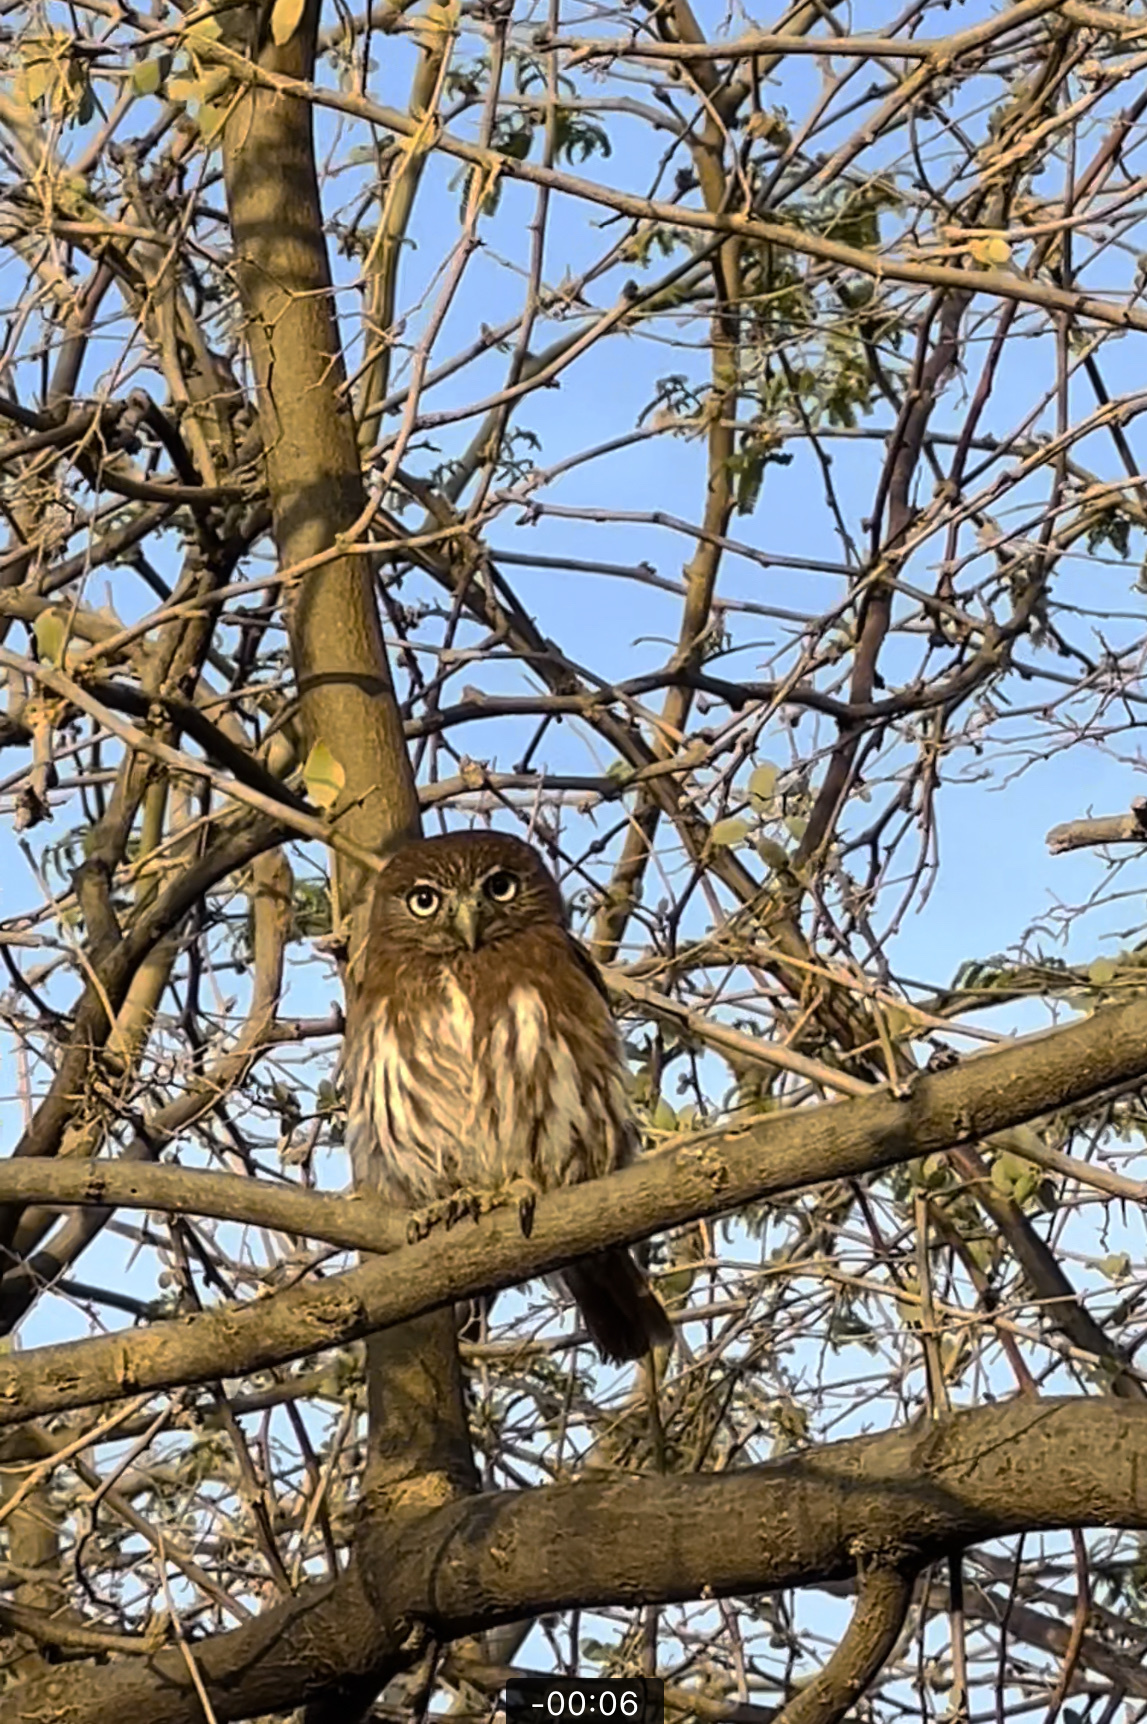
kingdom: Animalia
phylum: Chordata
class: Aves
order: Strigiformes
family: Strigidae
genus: Glaucidium
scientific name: Glaucidium peruanum
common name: Pacific pygmy owl
